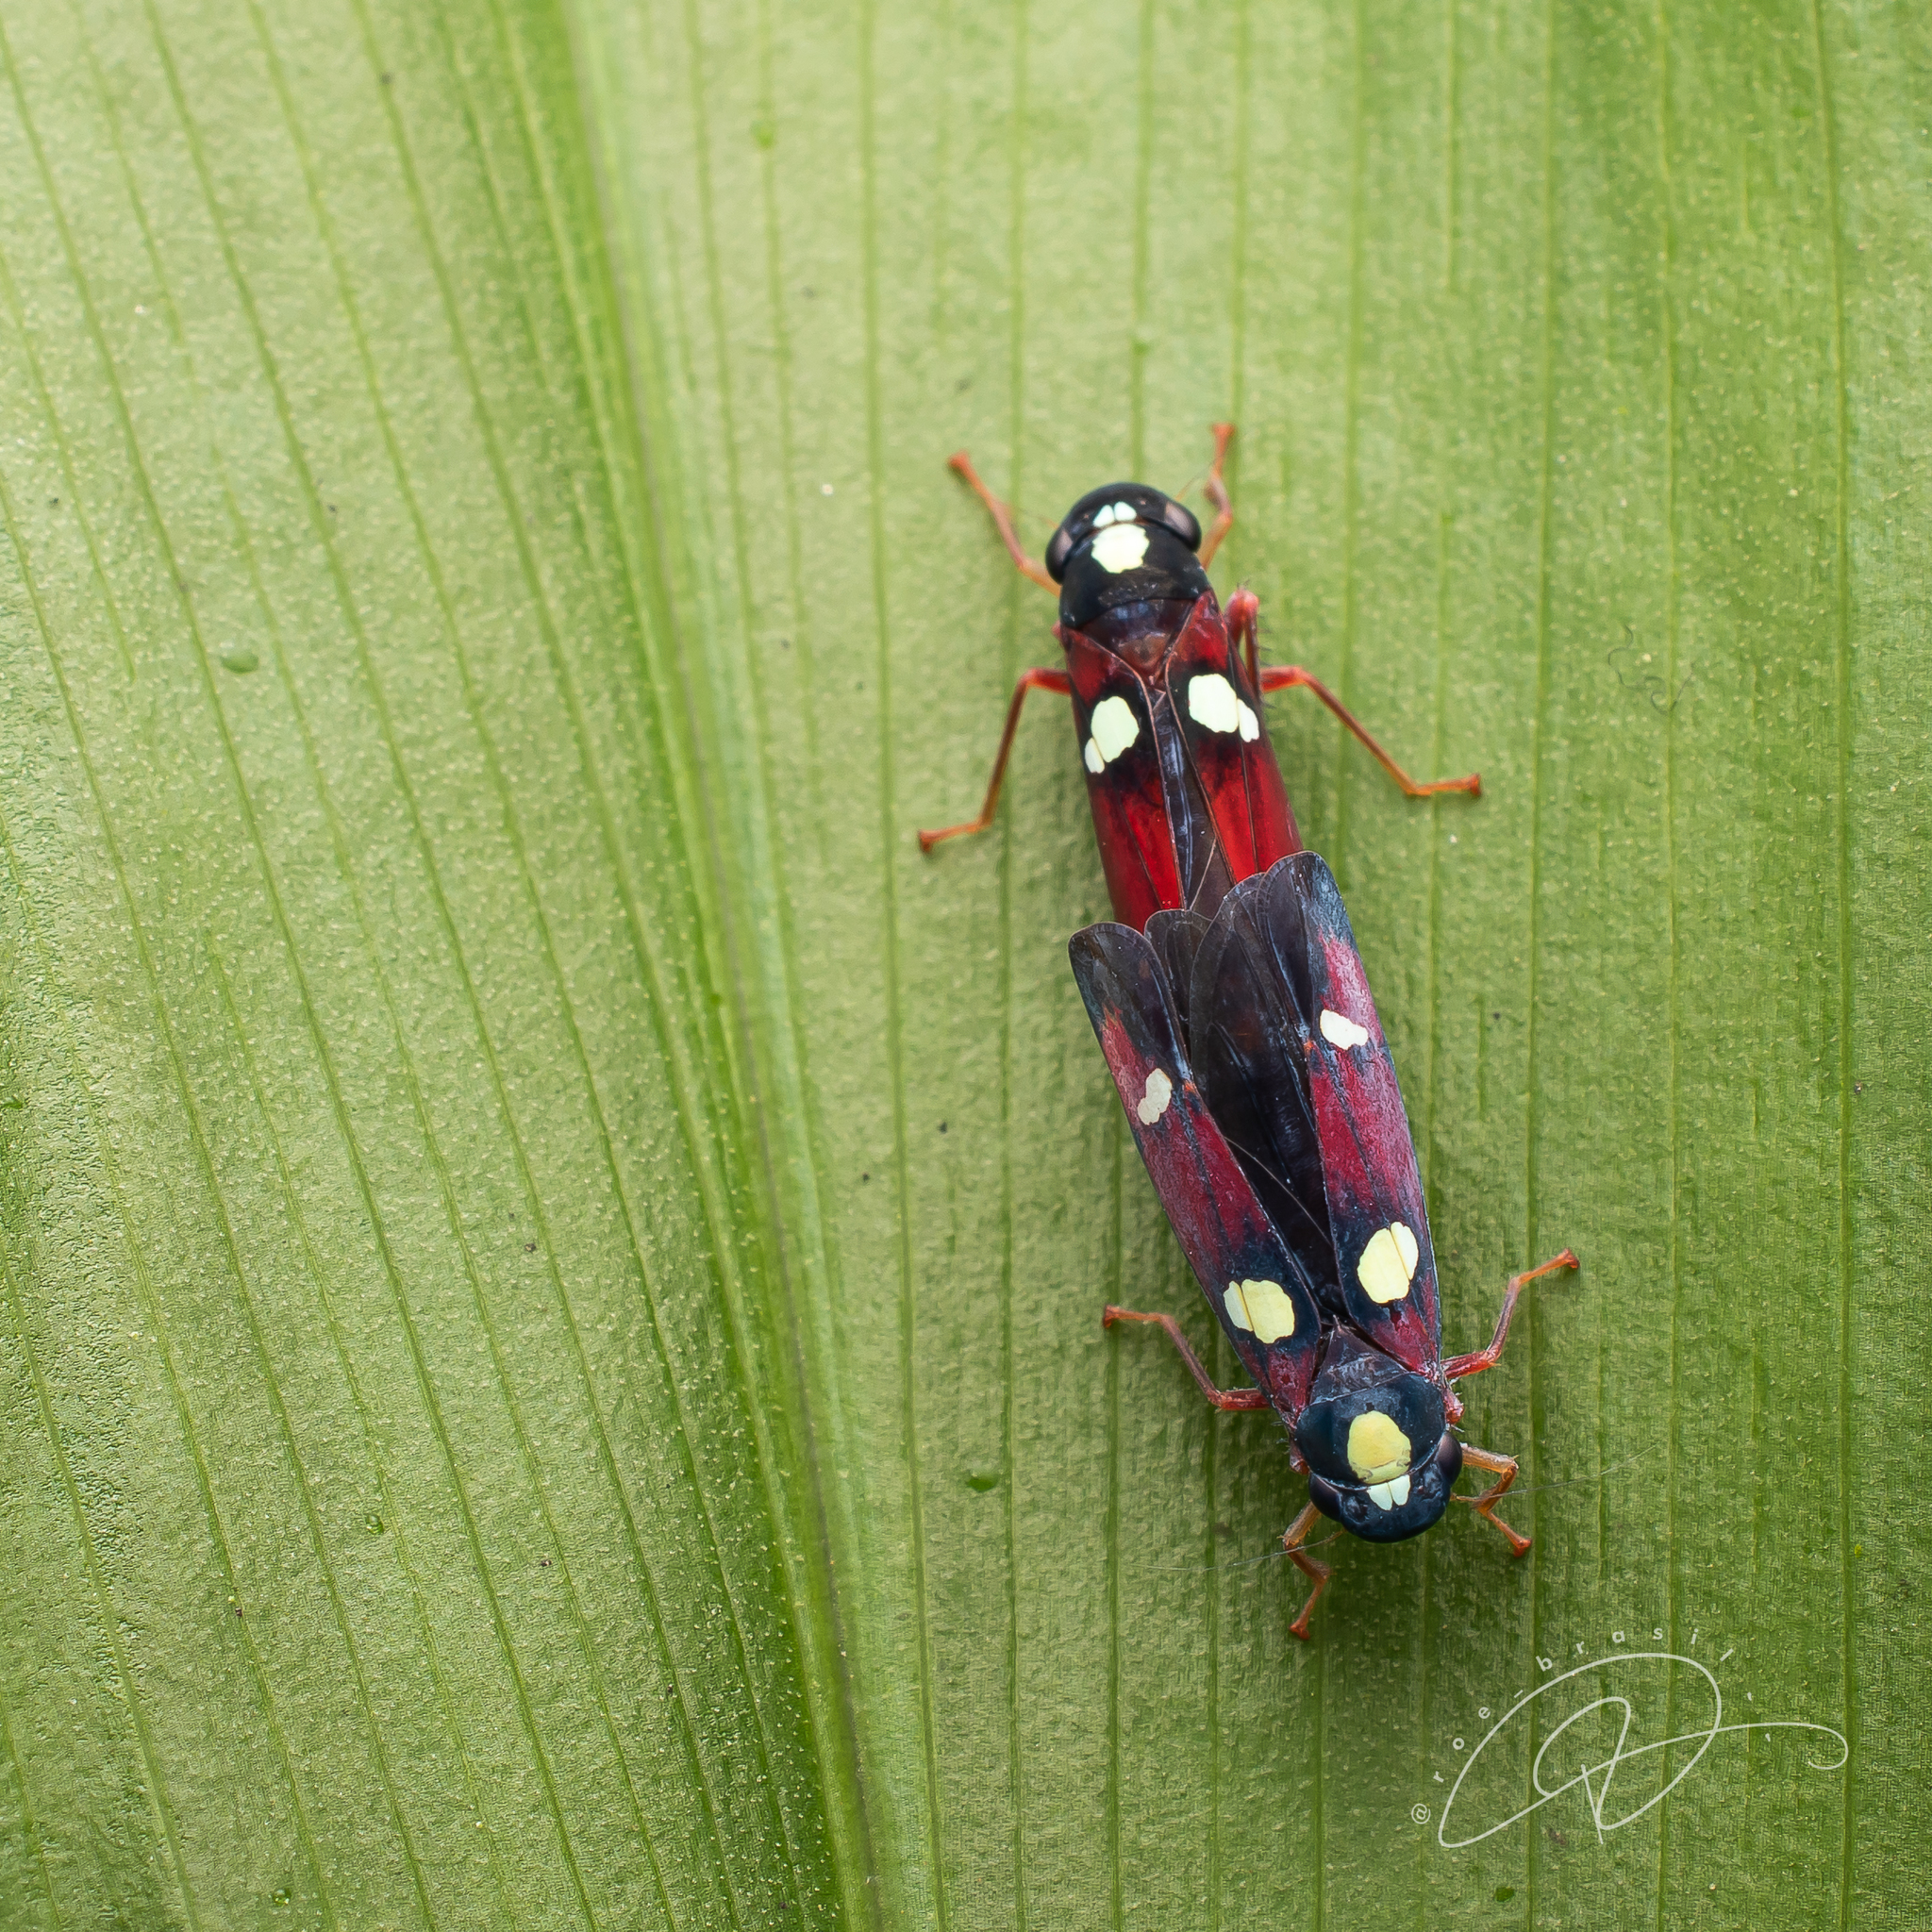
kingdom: Animalia
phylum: Arthropoda
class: Insecta
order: Hemiptera
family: Cicadellidae
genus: Erythrogonia
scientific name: Erythrogonia hertha
